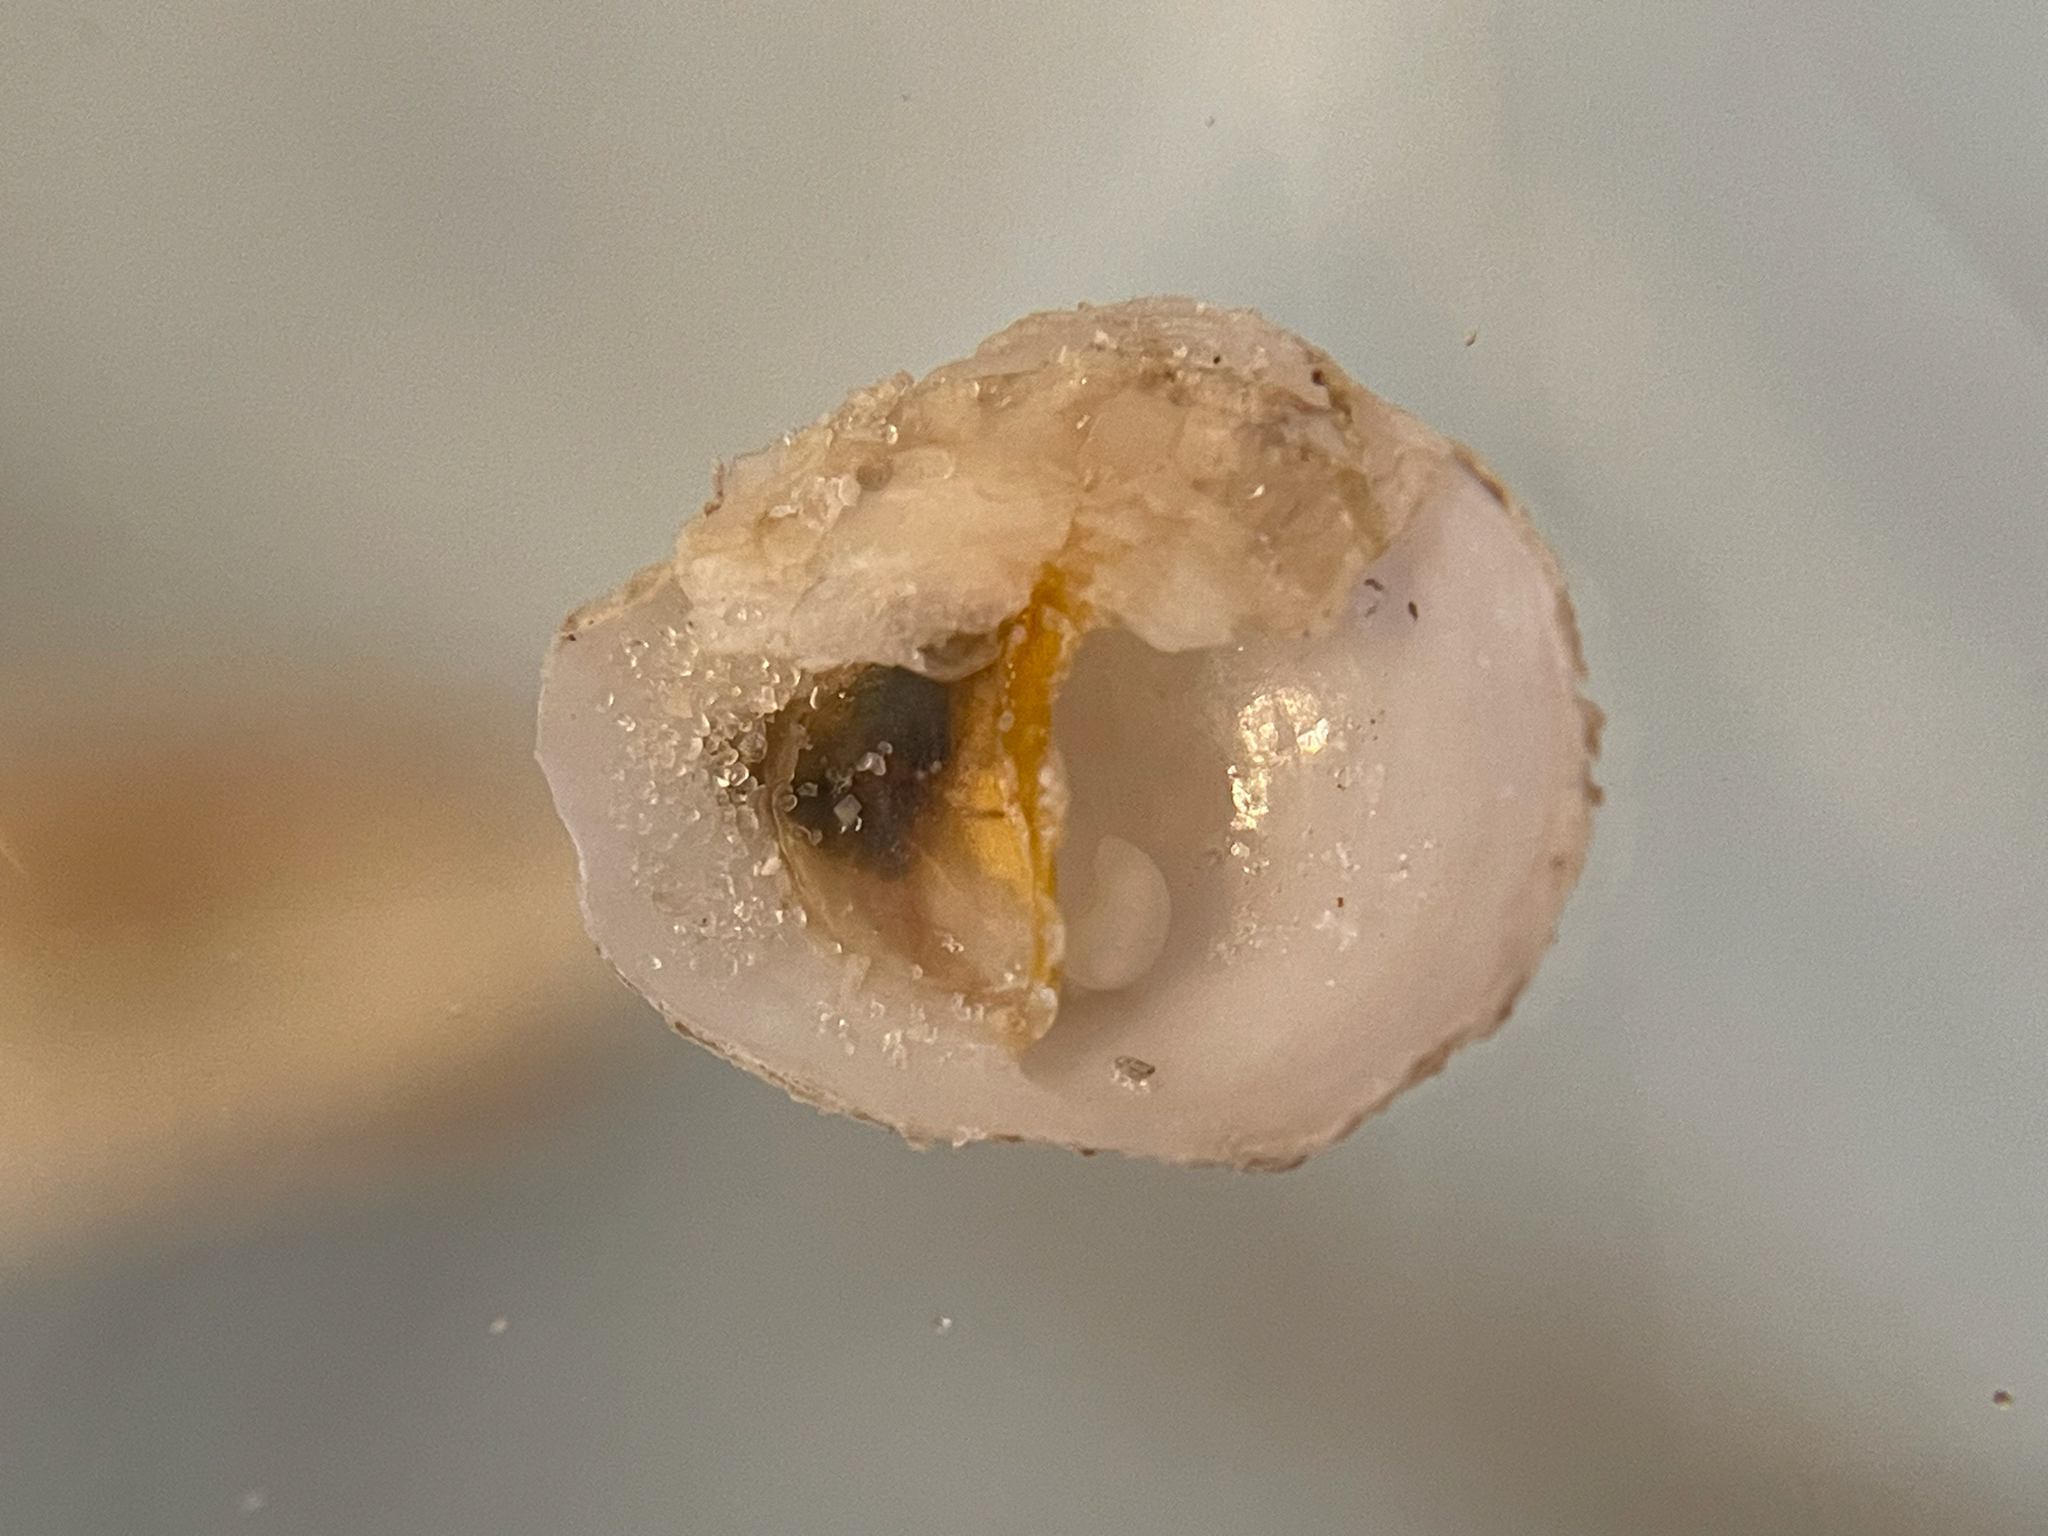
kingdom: Animalia
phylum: Mollusca
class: Gastropoda
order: Littorinimorpha
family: Calyptraeidae
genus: Crepidula
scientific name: Crepidula atrasolea
